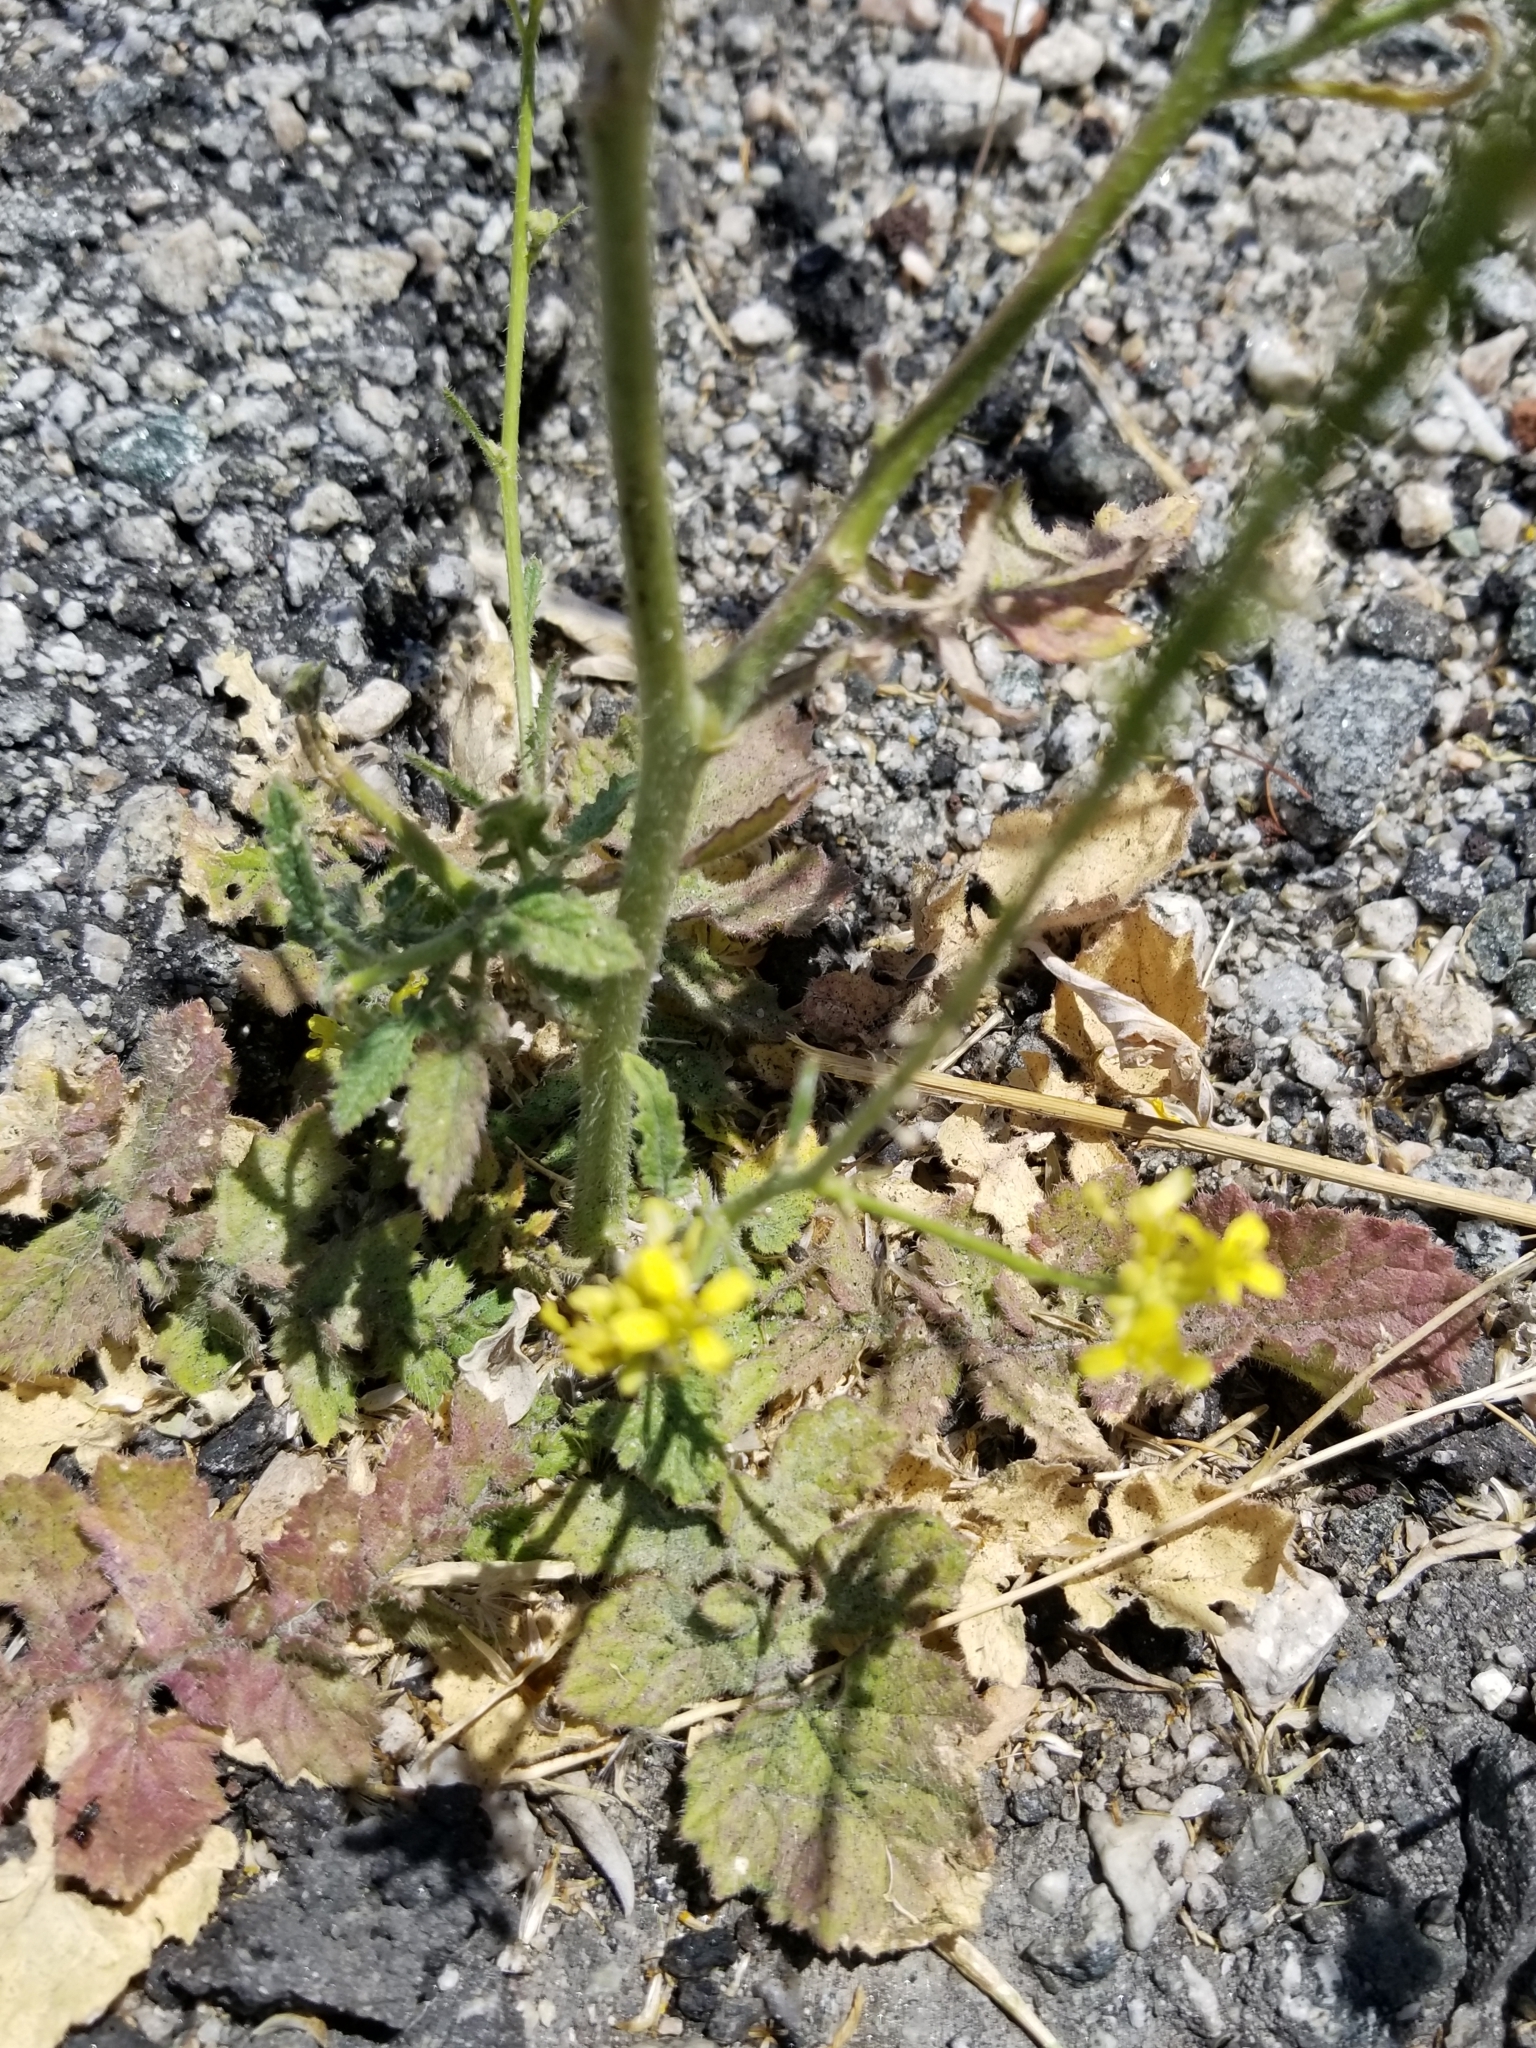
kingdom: Plantae
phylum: Tracheophyta
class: Magnoliopsida
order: Brassicales
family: Brassicaceae
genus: Hirschfeldia
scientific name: Hirschfeldia incana
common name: Hoary mustard
